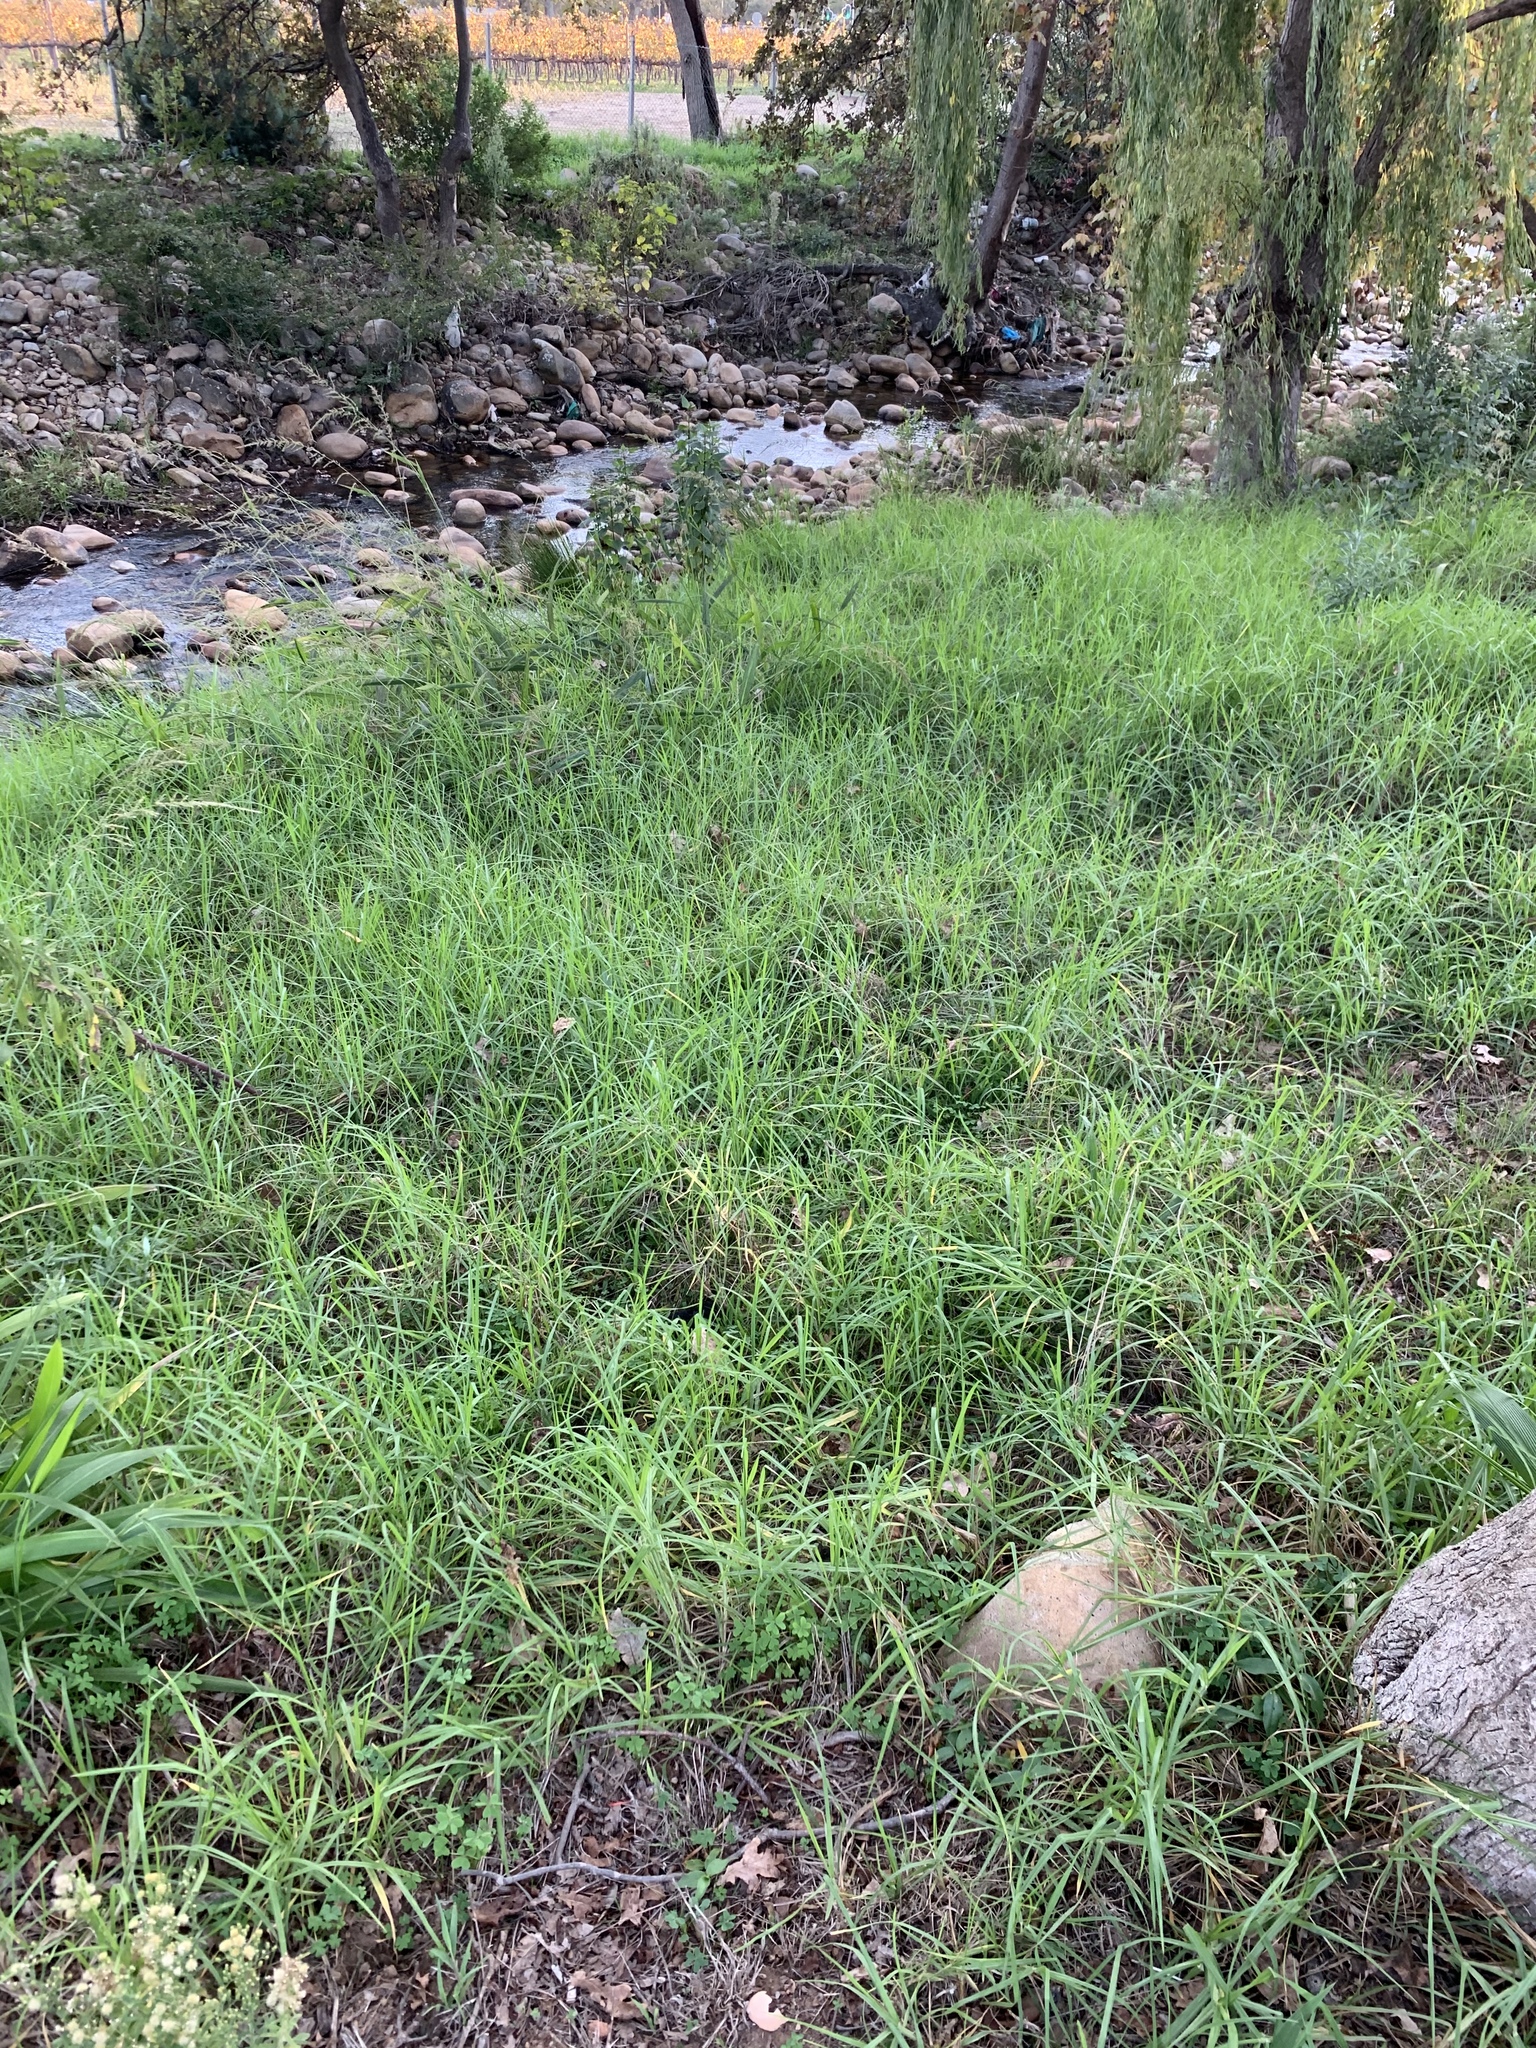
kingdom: Plantae
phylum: Tracheophyta
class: Liliopsida
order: Poales
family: Poaceae
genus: Cenchrus
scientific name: Cenchrus clandestinus
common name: Kikuyugrass
